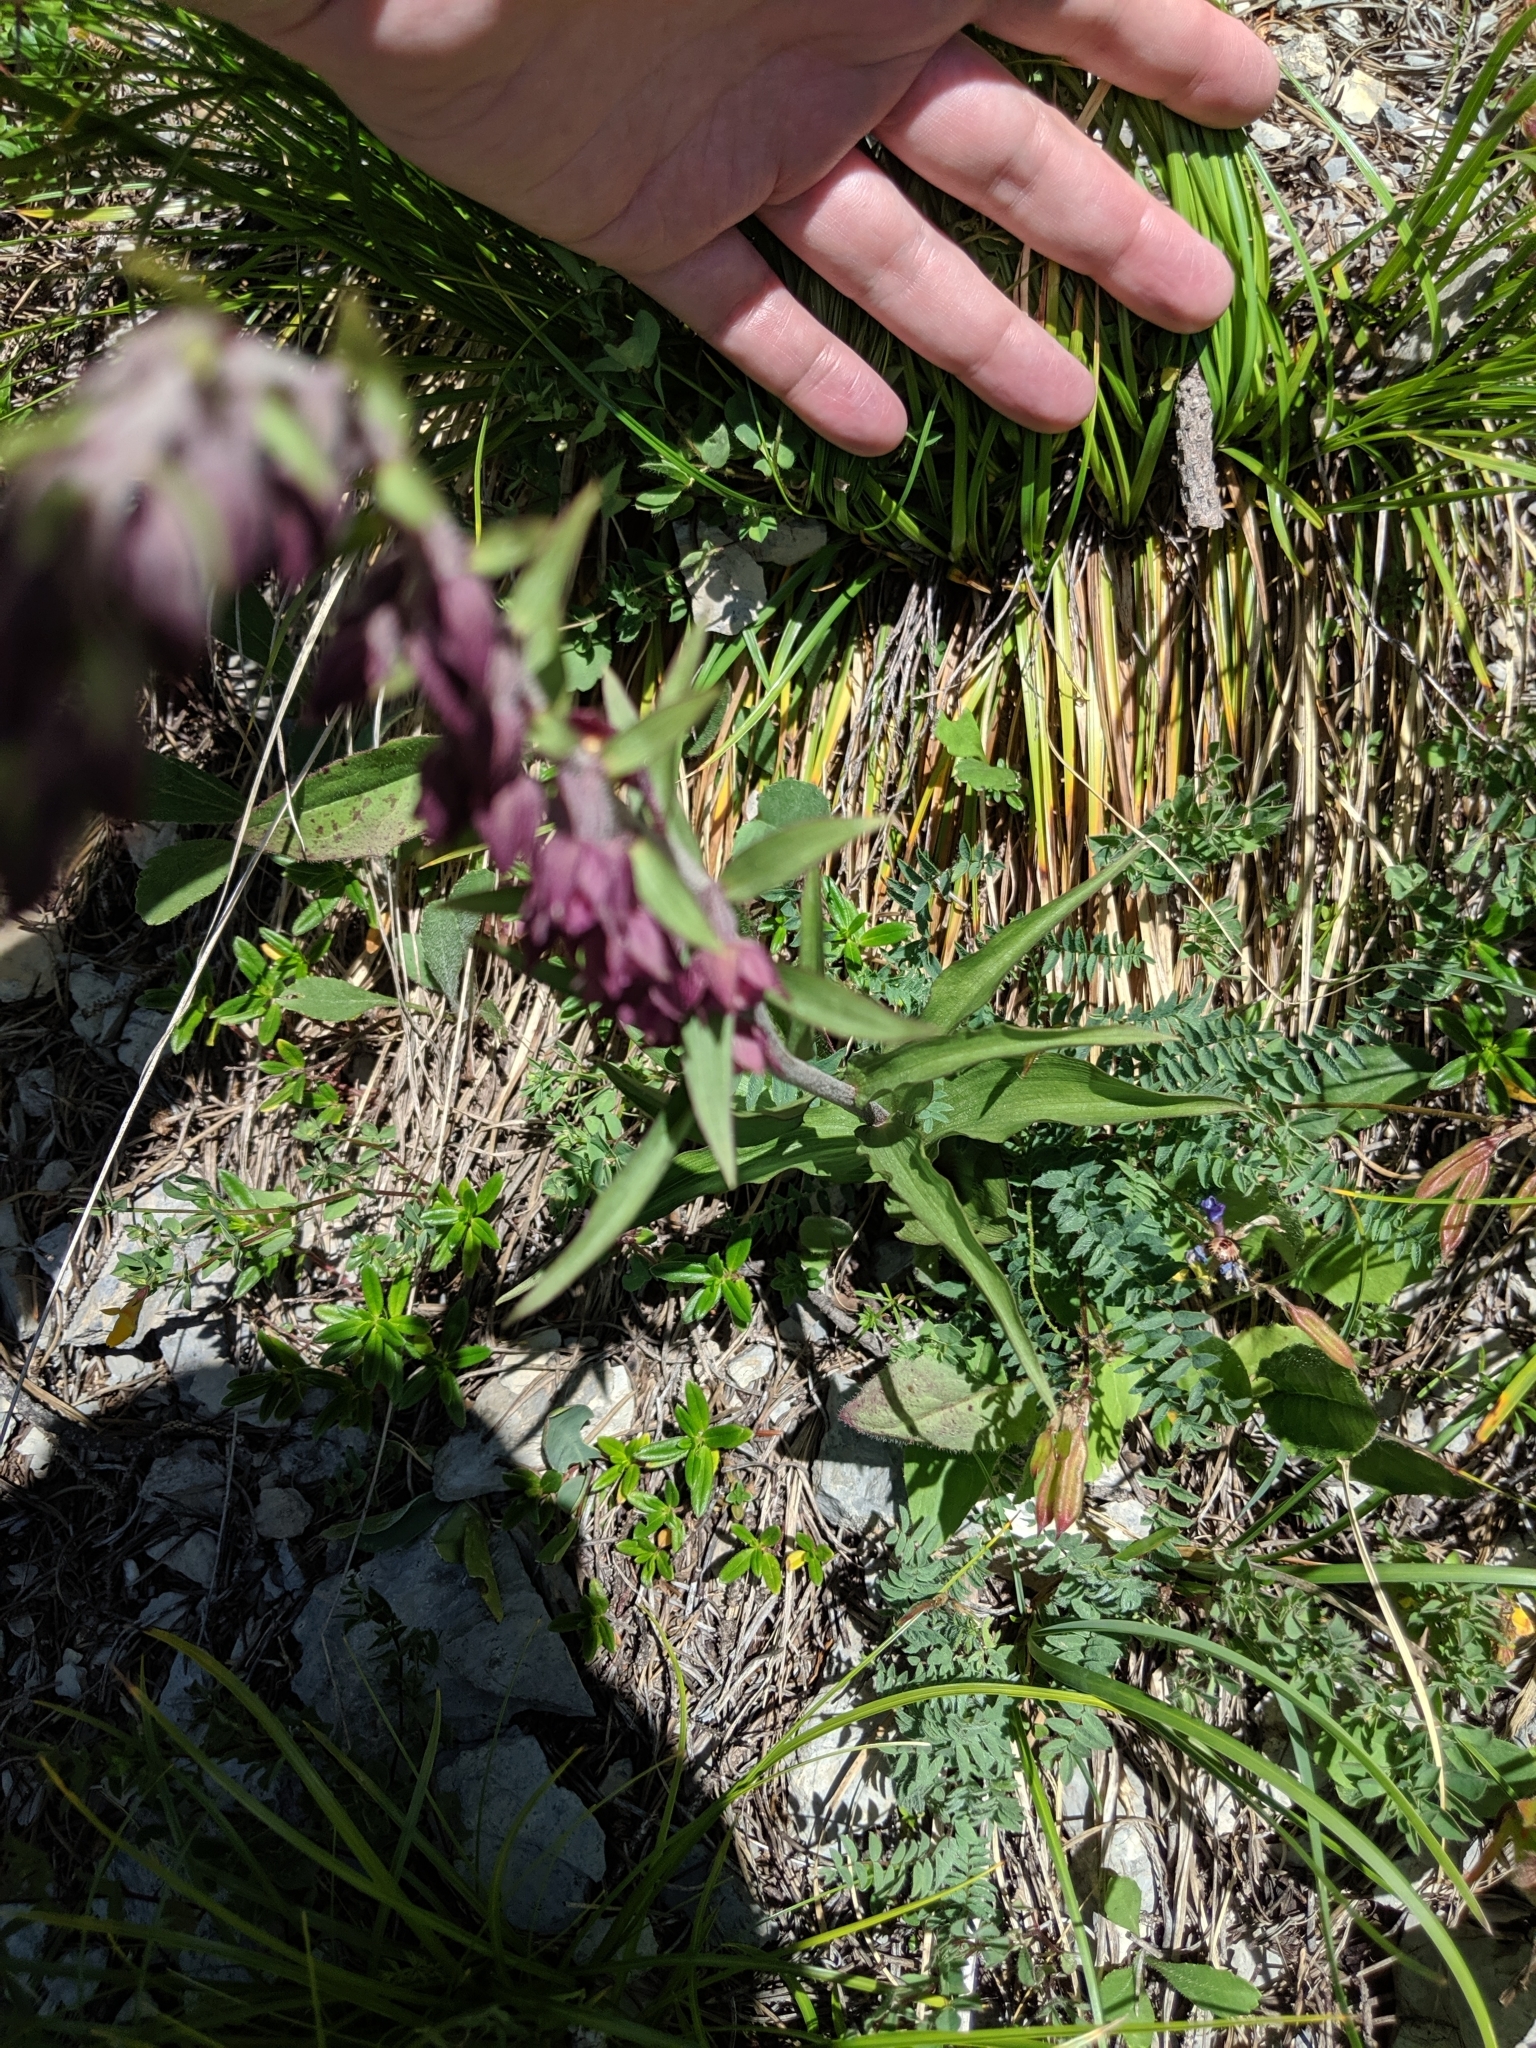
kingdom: Plantae
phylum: Tracheophyta
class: Liliopsida
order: Asparagales
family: Orchidaceae
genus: Epipactis
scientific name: Epipactis atrorubens
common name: Dark-red helleborine
